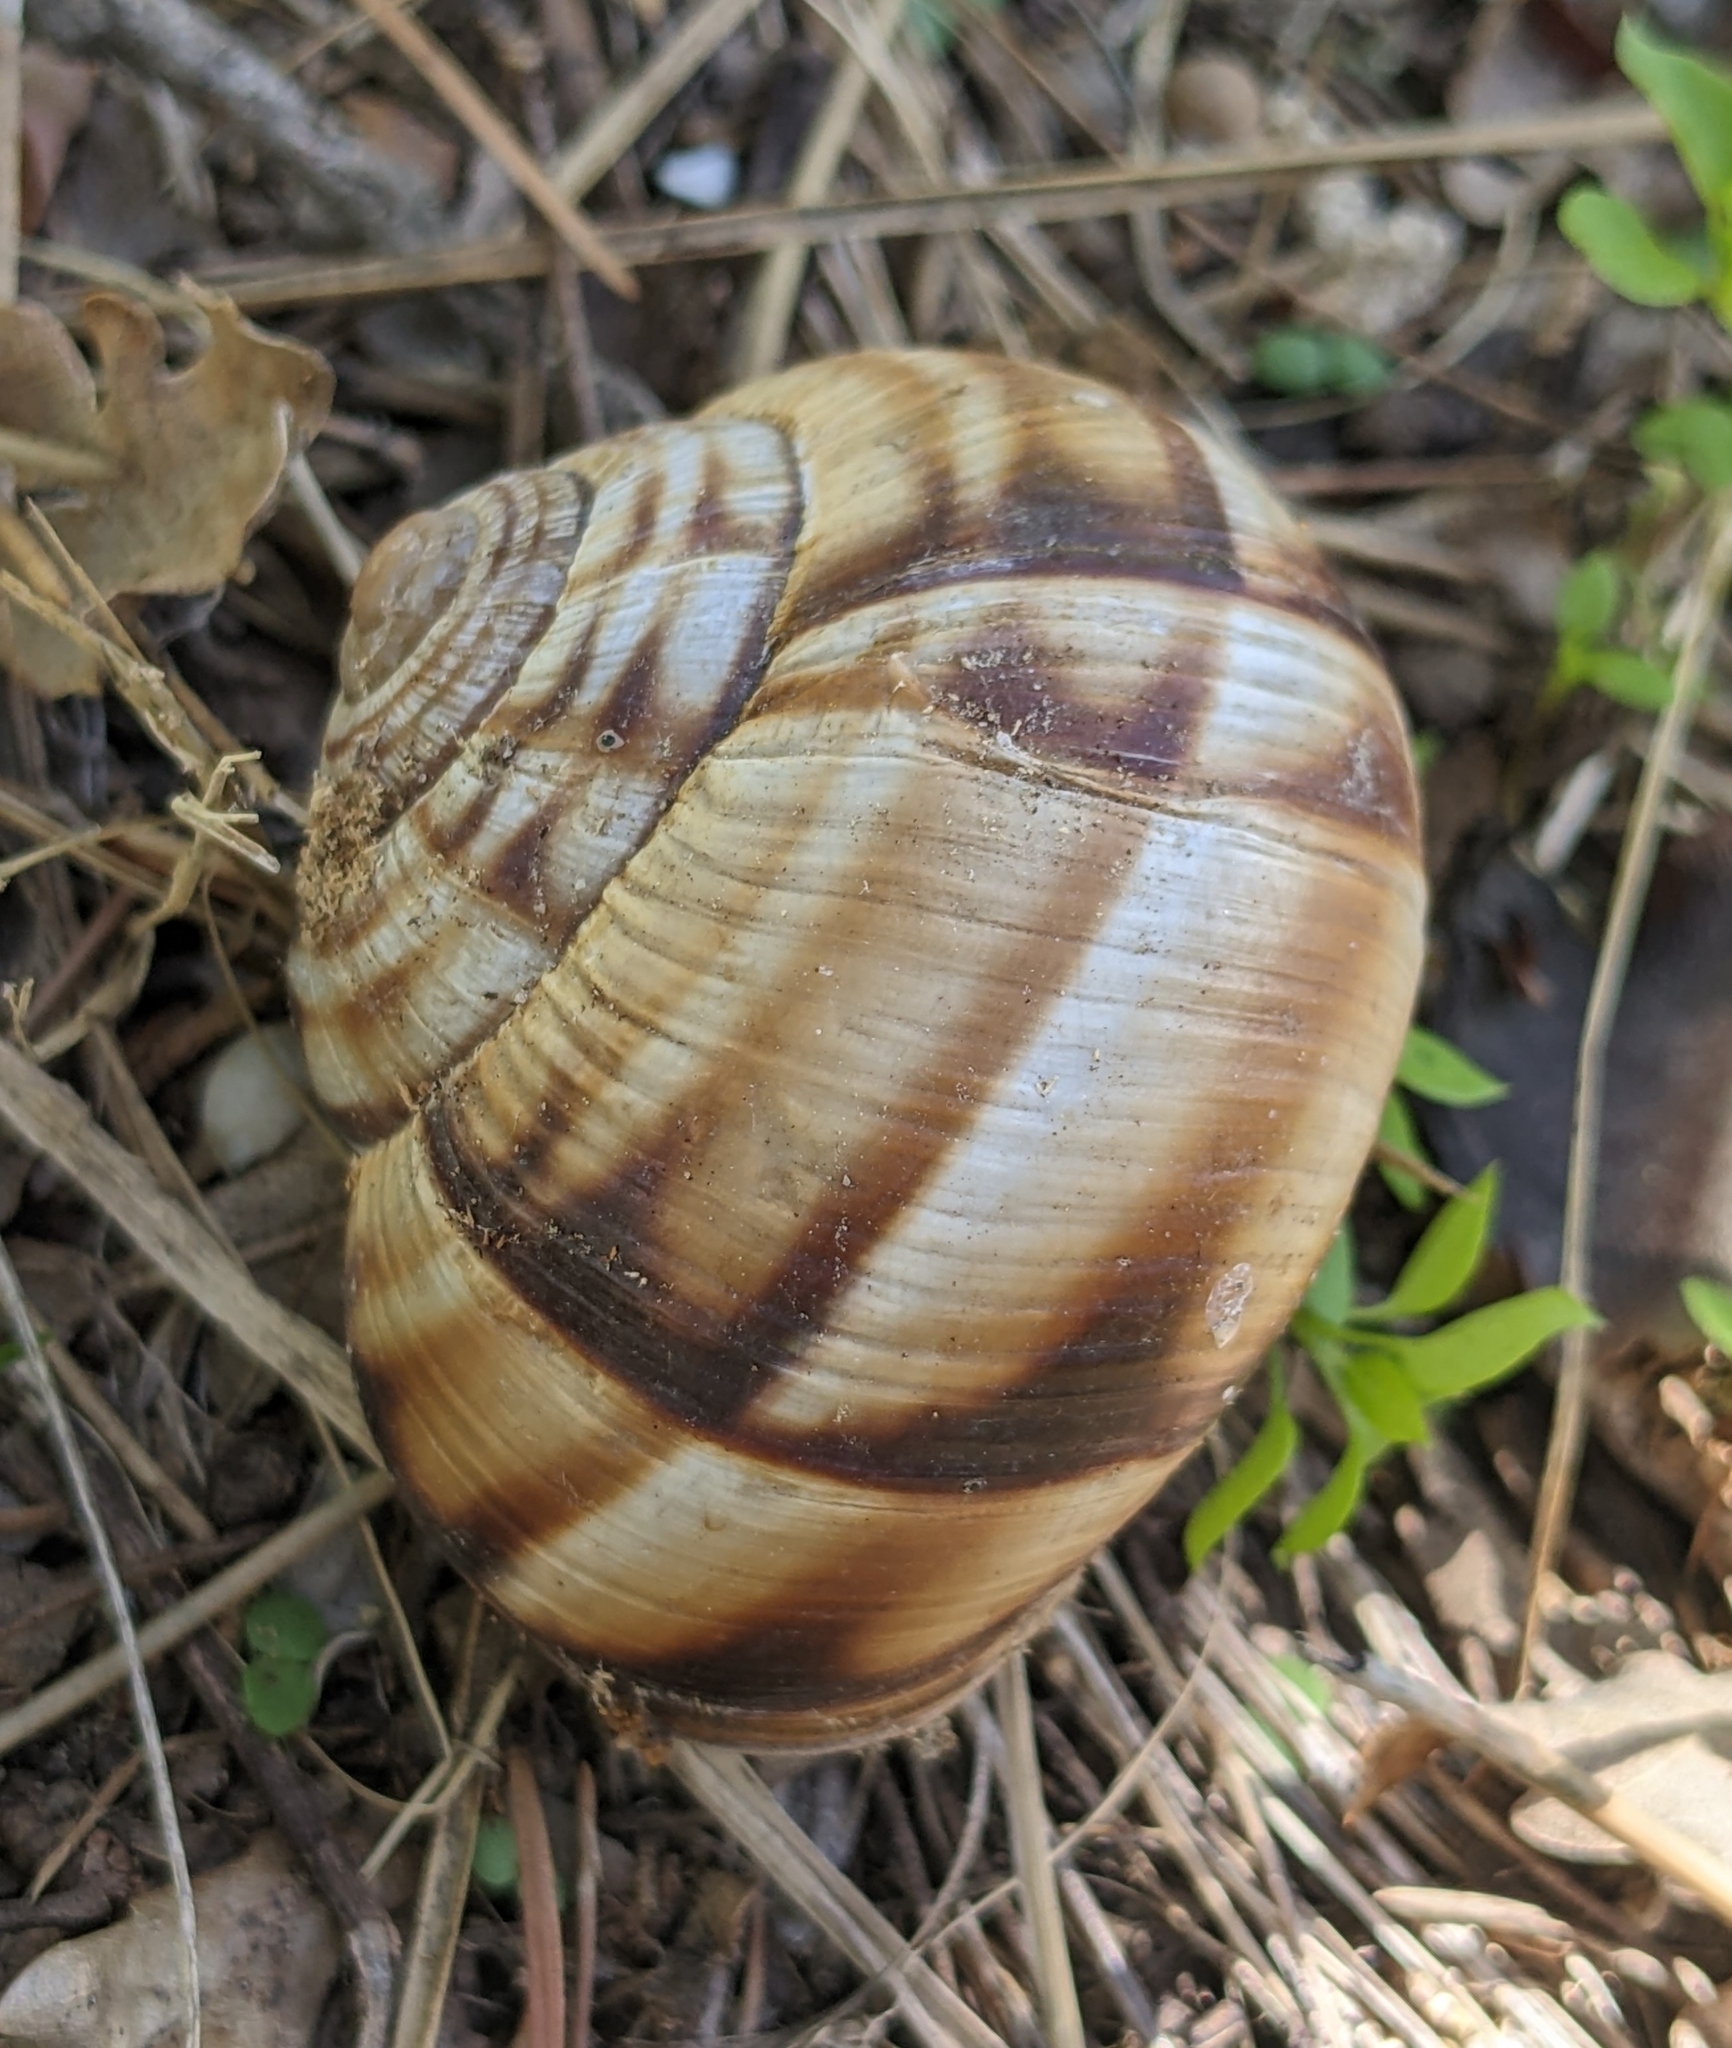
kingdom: Animalia
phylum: Mollusca
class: Gastropoda
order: Stylommatophora
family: Helicidae
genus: Helix
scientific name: Helix lucorum
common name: Turkish snail
